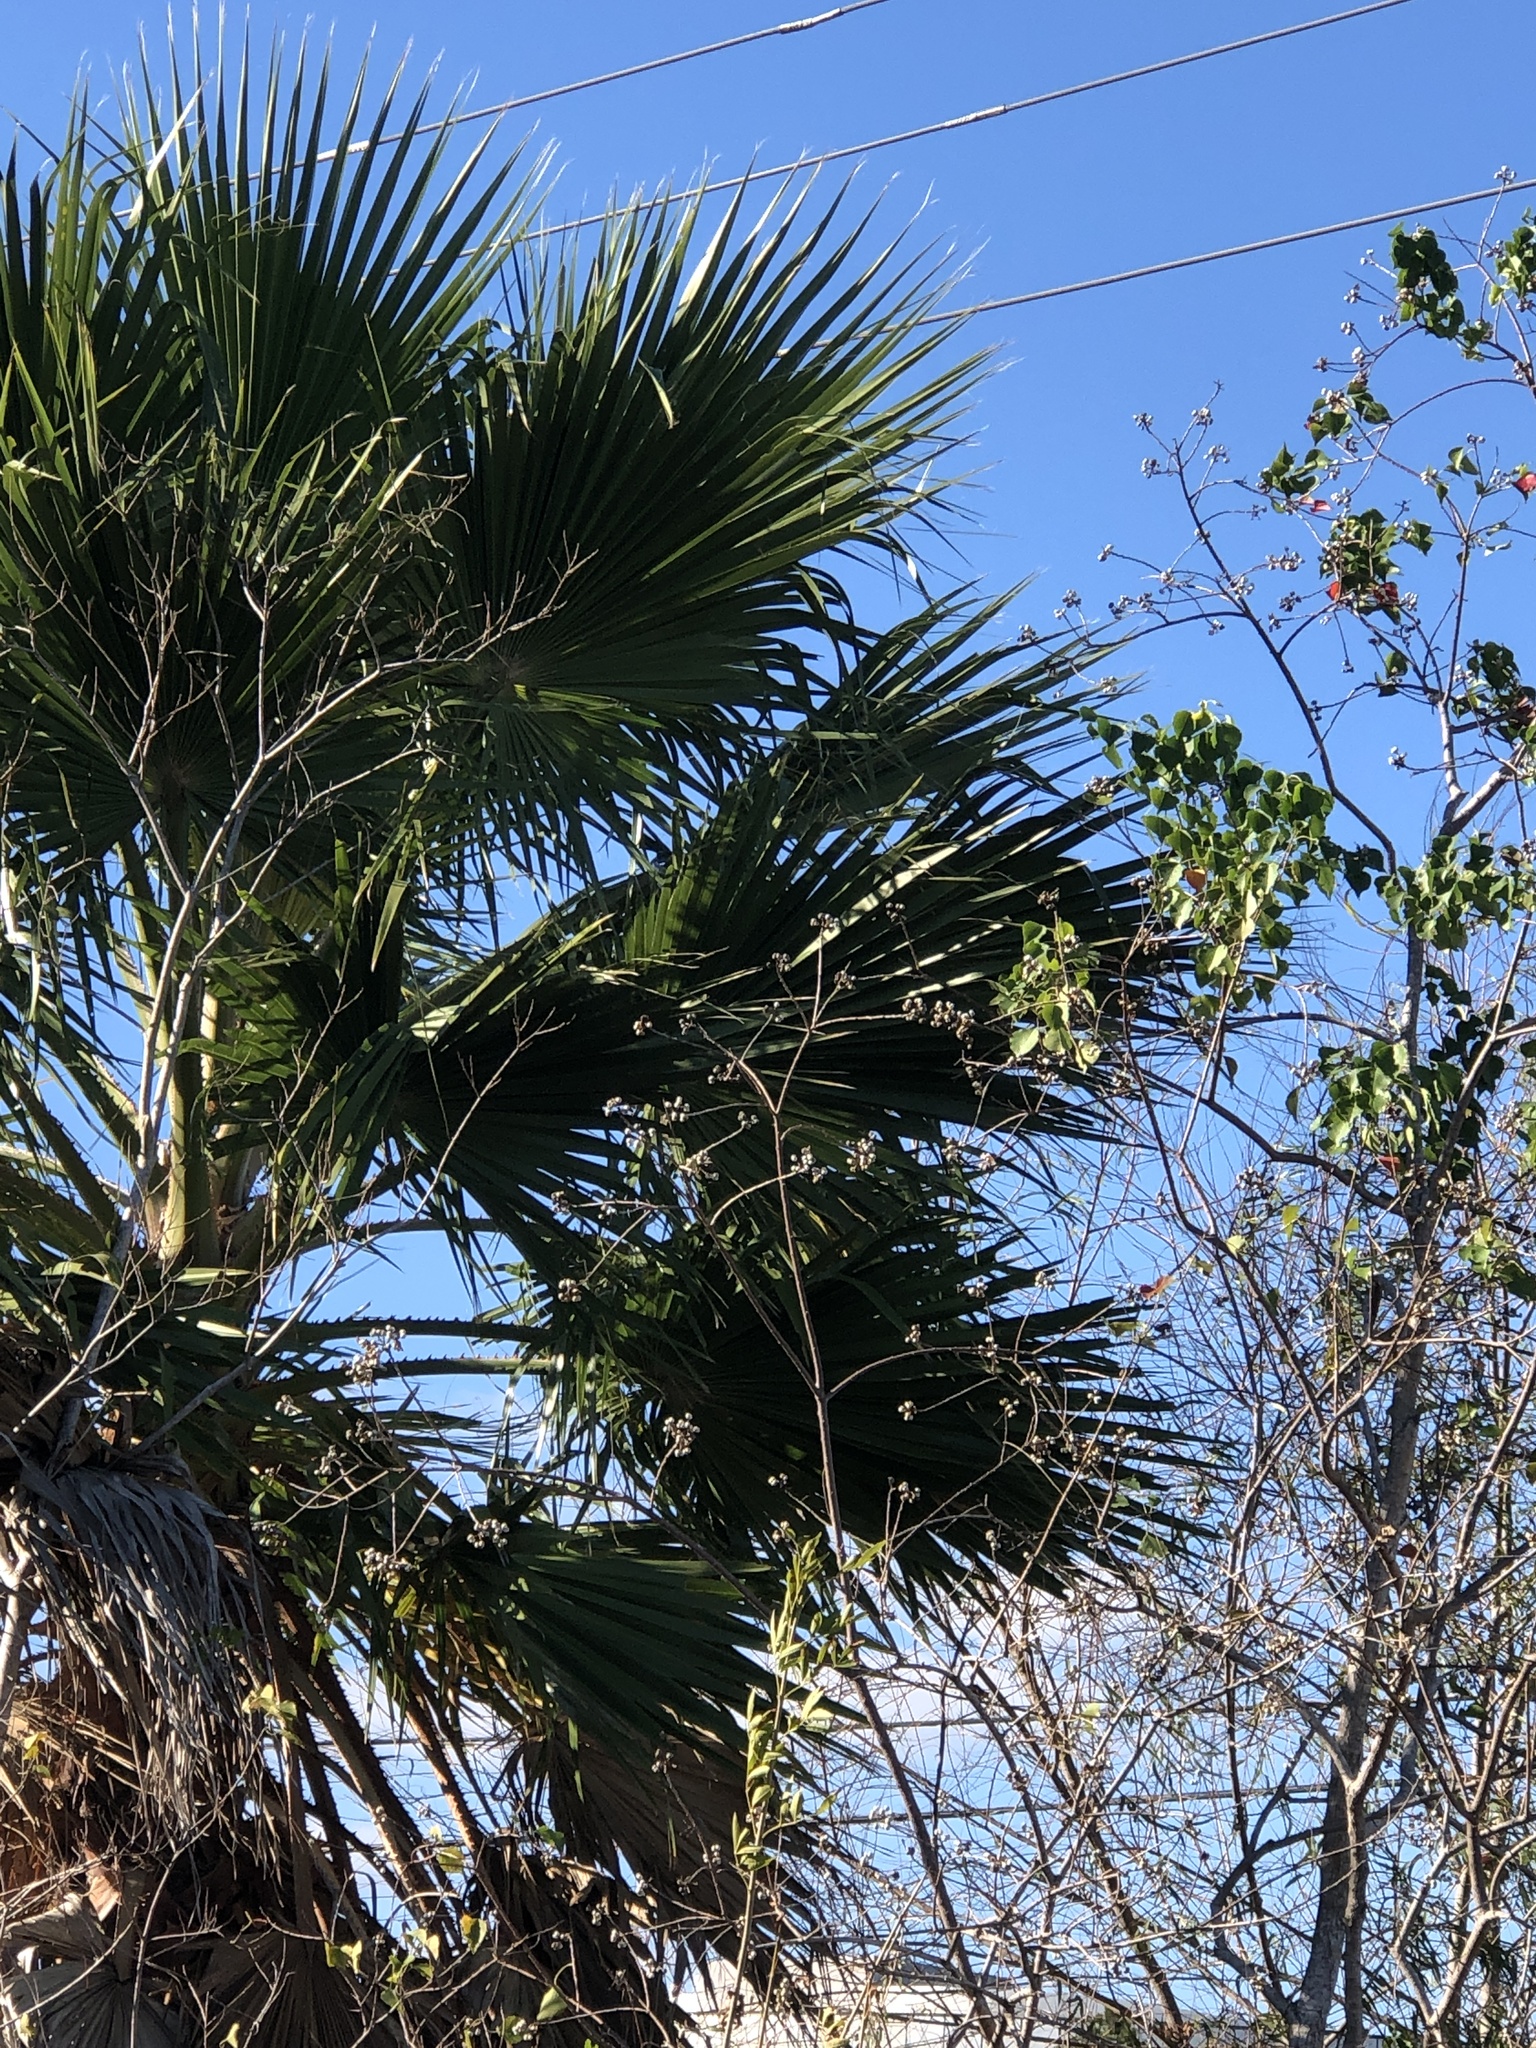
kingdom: Plantae
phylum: Tracheophyta
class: Liliopsida
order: Arecales
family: Arecaceae
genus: Washingtonia
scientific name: Washingtonia robusta
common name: Mexican fan palm
